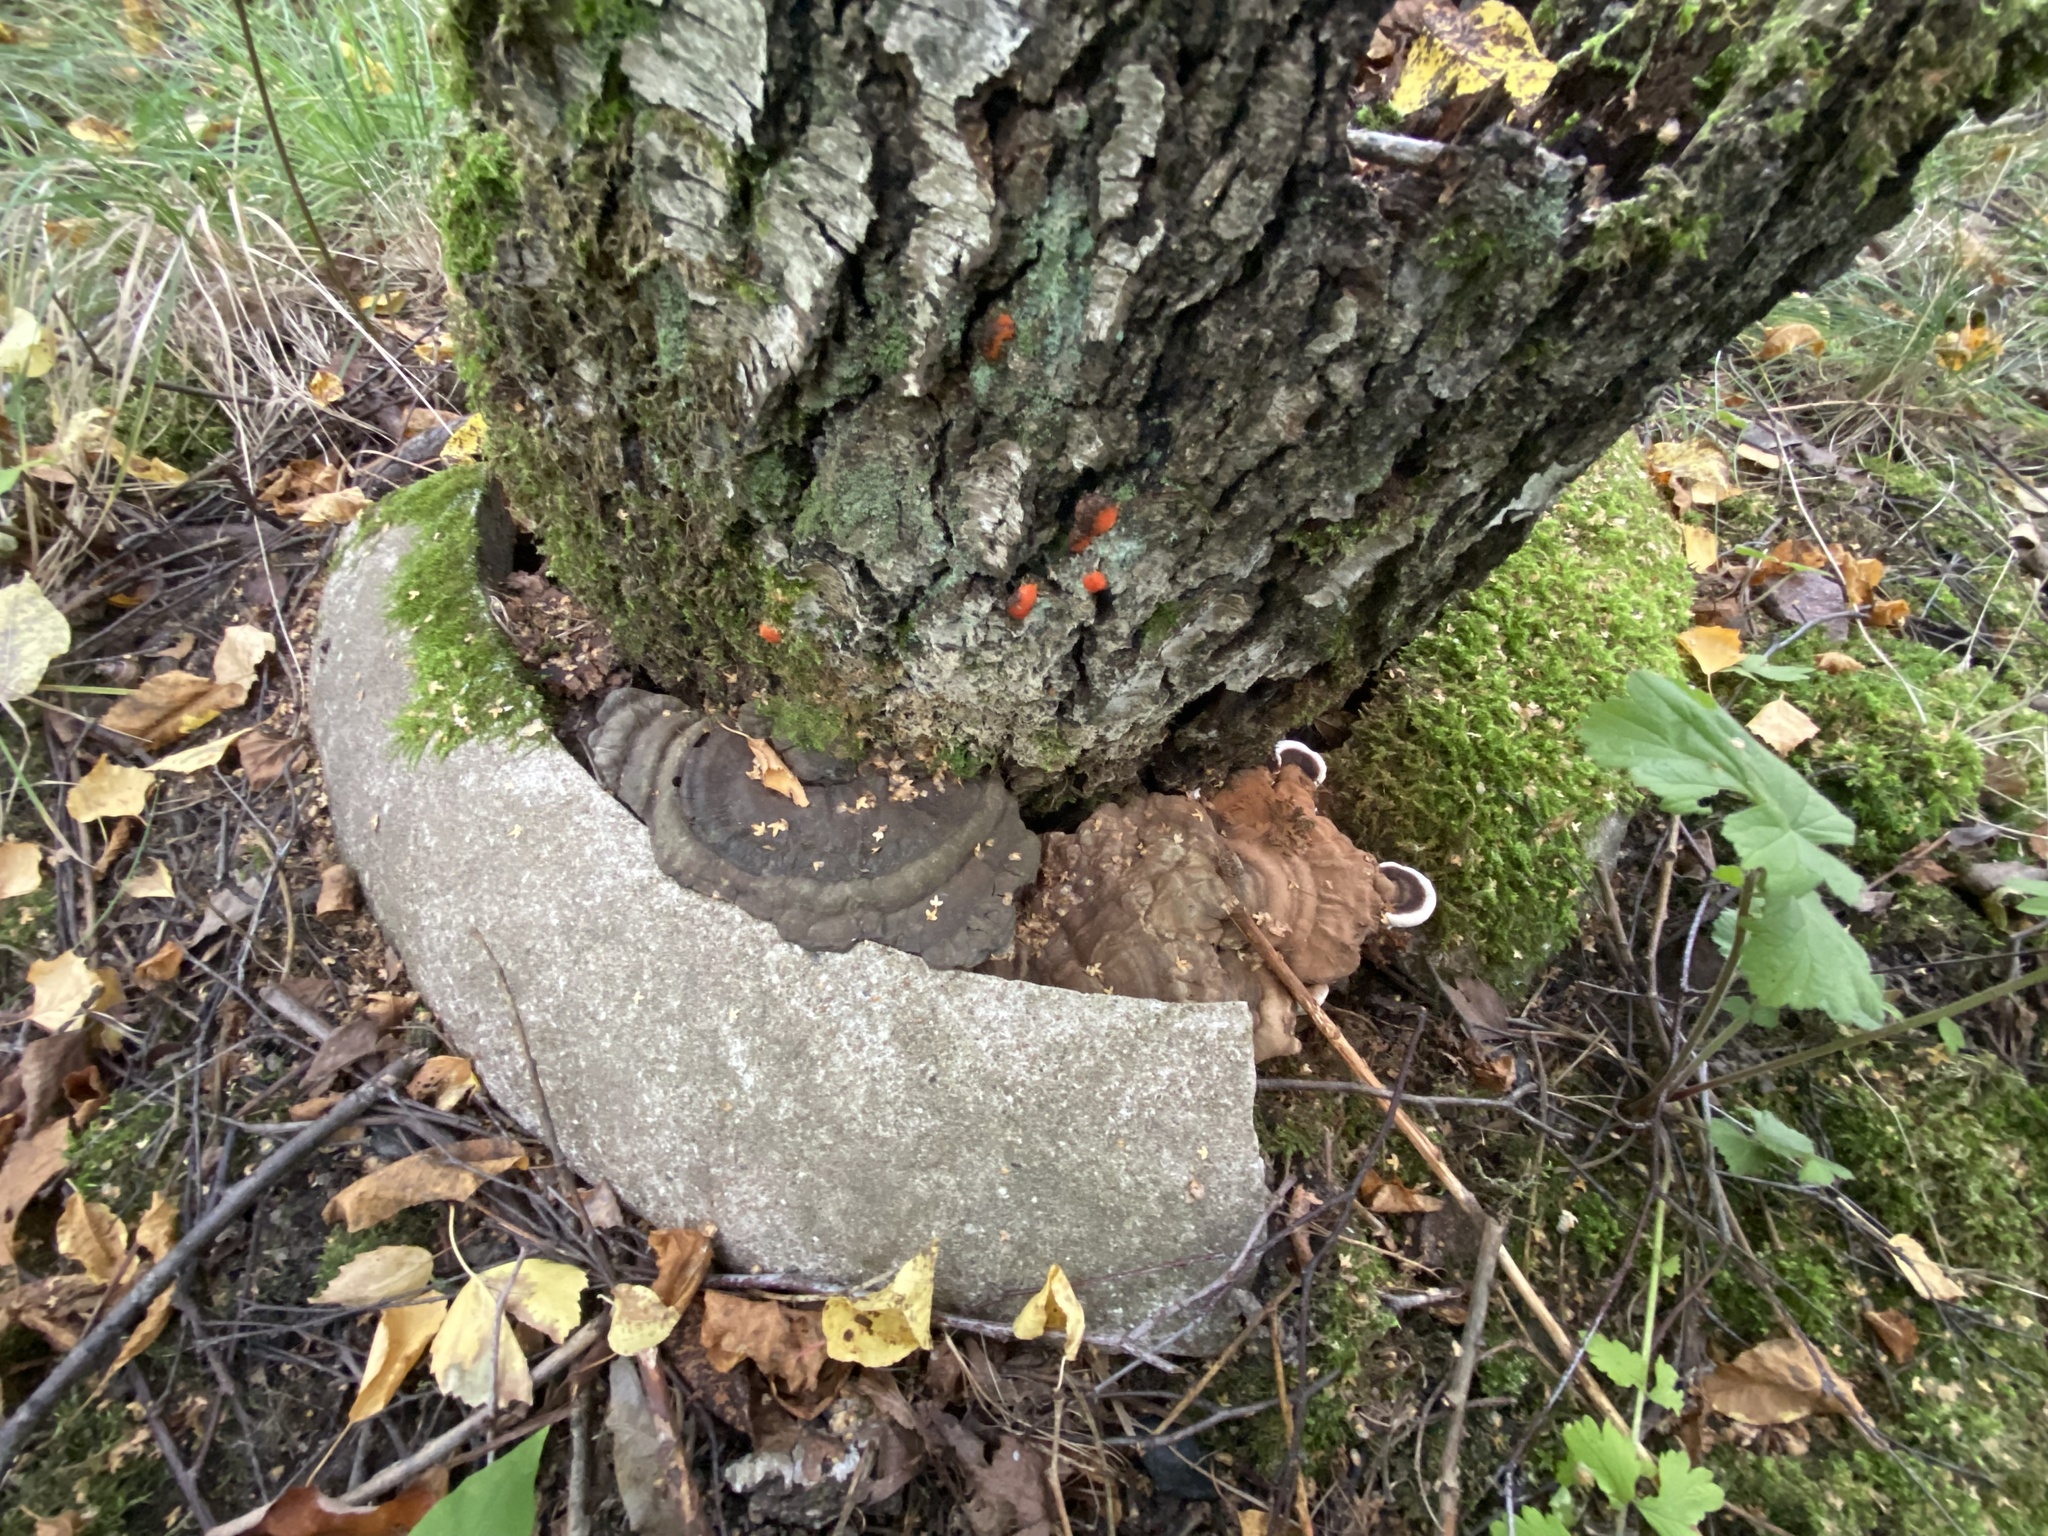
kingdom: Fungi
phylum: Basidiomycota
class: Agaricomycetes
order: Polyporales
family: Polyporaceae
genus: Ganoderma
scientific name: Ganoderma applanatum
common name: Artist's bracket
